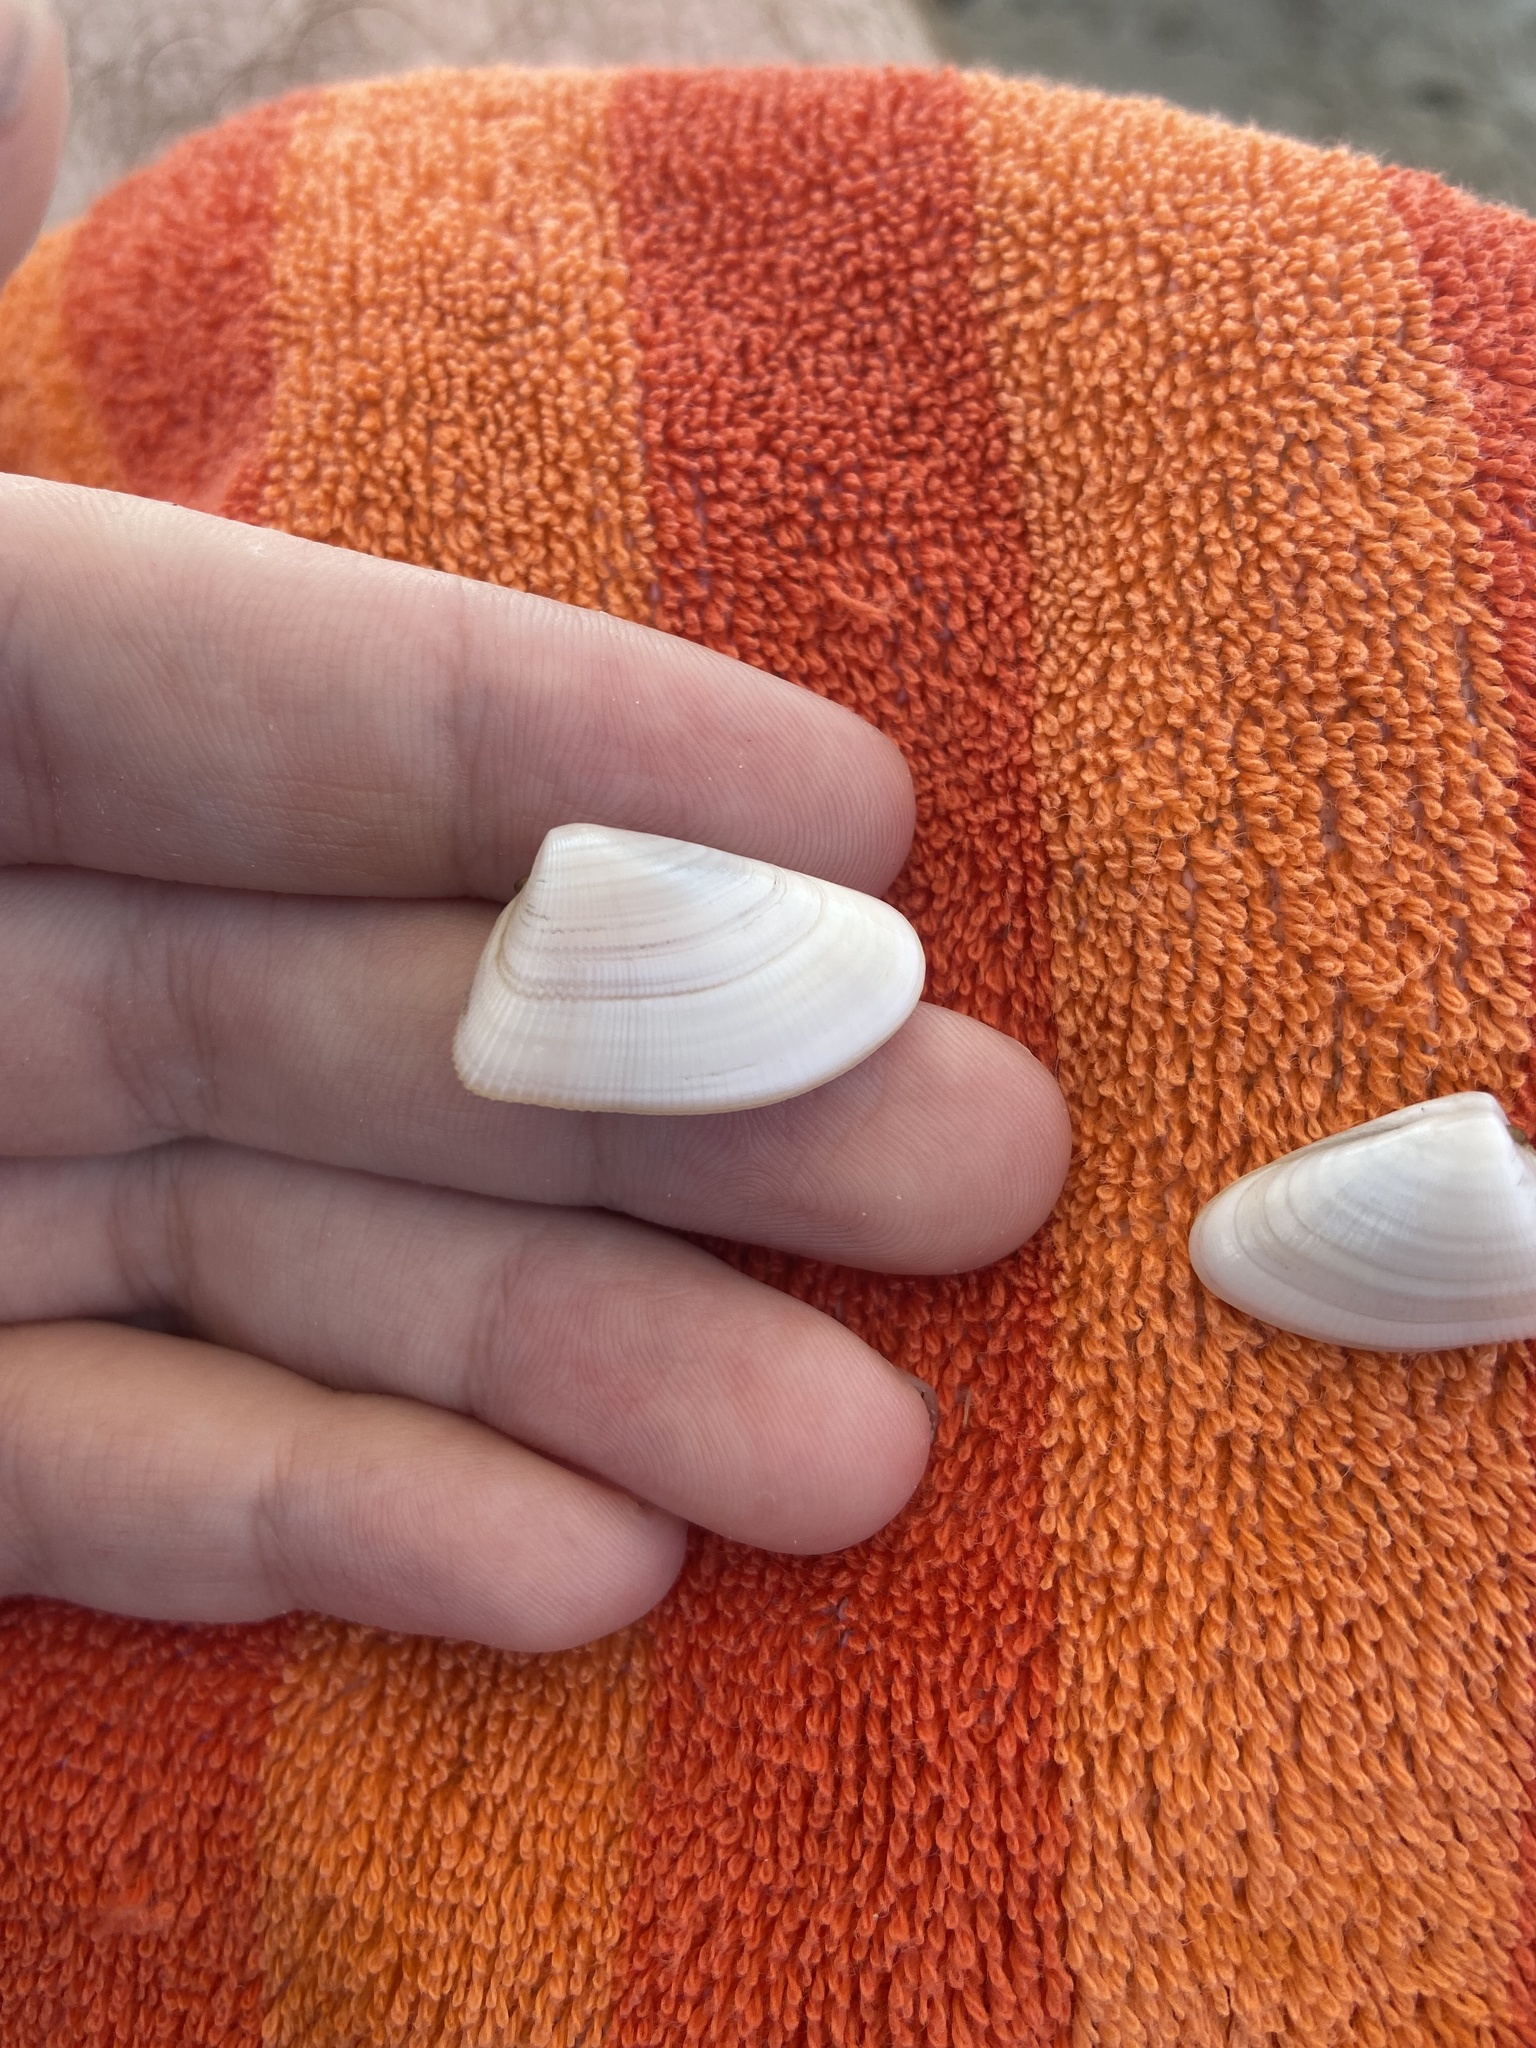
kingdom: Animalia
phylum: Mollusca
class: Bivalvia
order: Cardiida
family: Donacidae
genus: Donax
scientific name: Donax variabilis
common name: Butterfly shell
